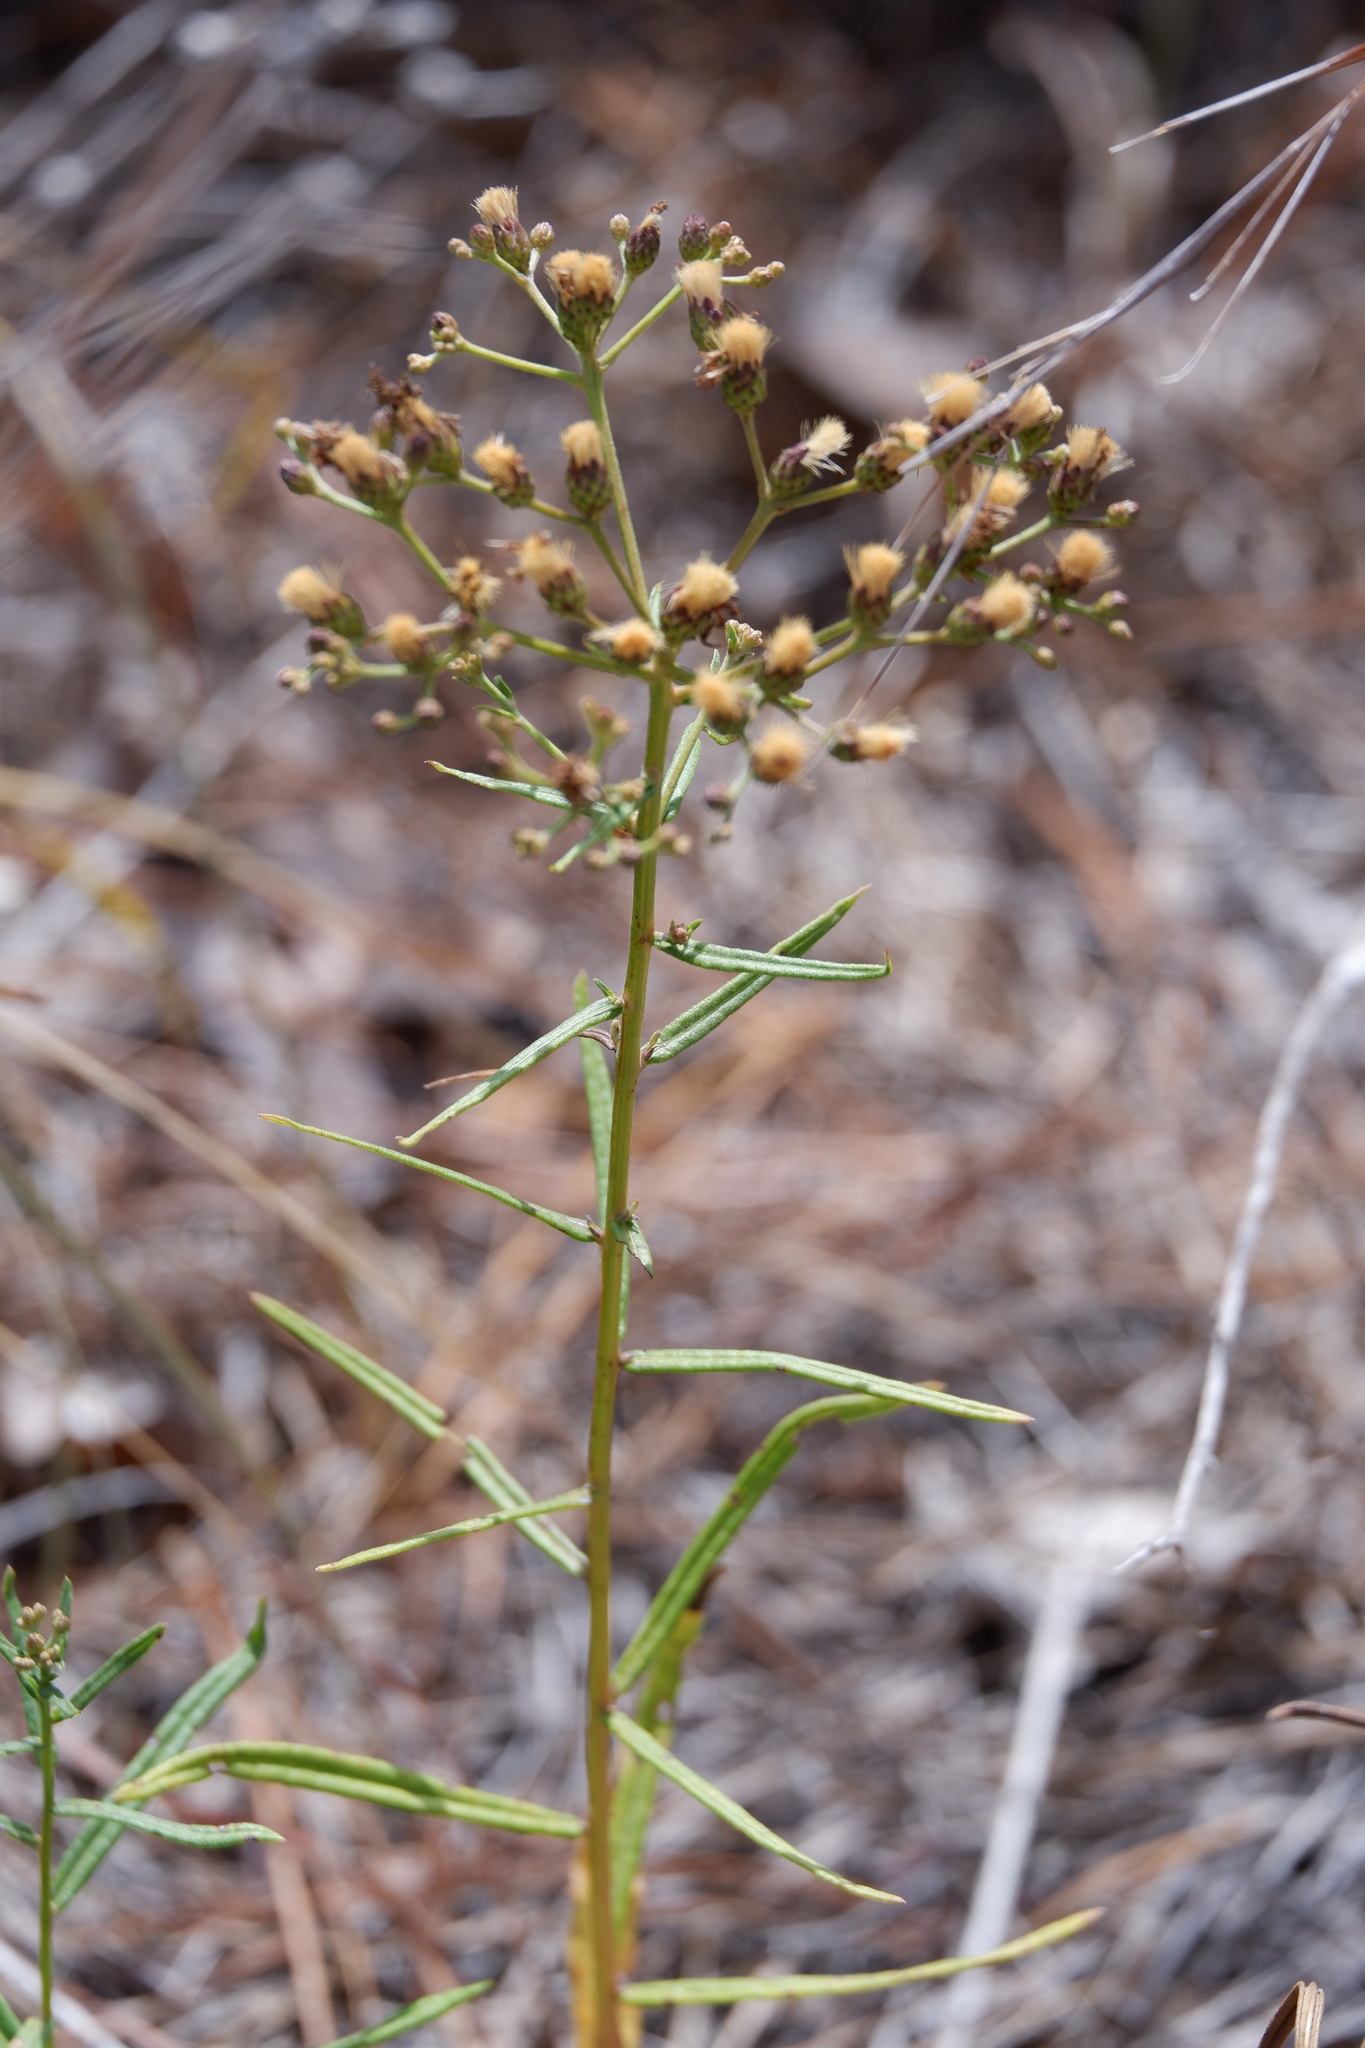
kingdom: Plantae
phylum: Tracheophyta
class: Magnoliopsida
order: Asterales
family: Asteraceae
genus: Vernonia
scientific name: Vernonia texana
